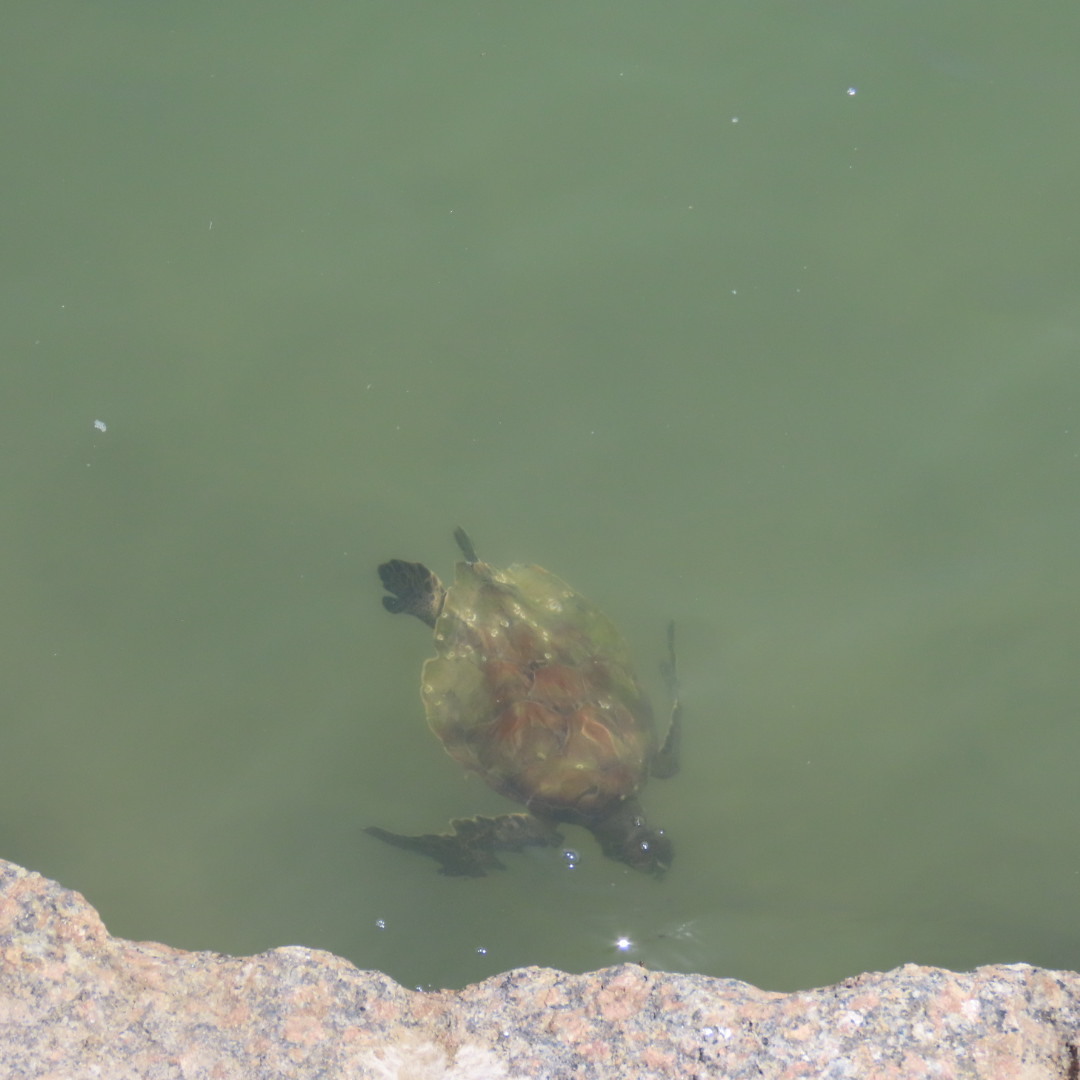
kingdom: Animalia
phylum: Chordata
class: Testudines
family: Cheloniidae
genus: Chelonia
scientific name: Chelonia mydas
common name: Green turtle
